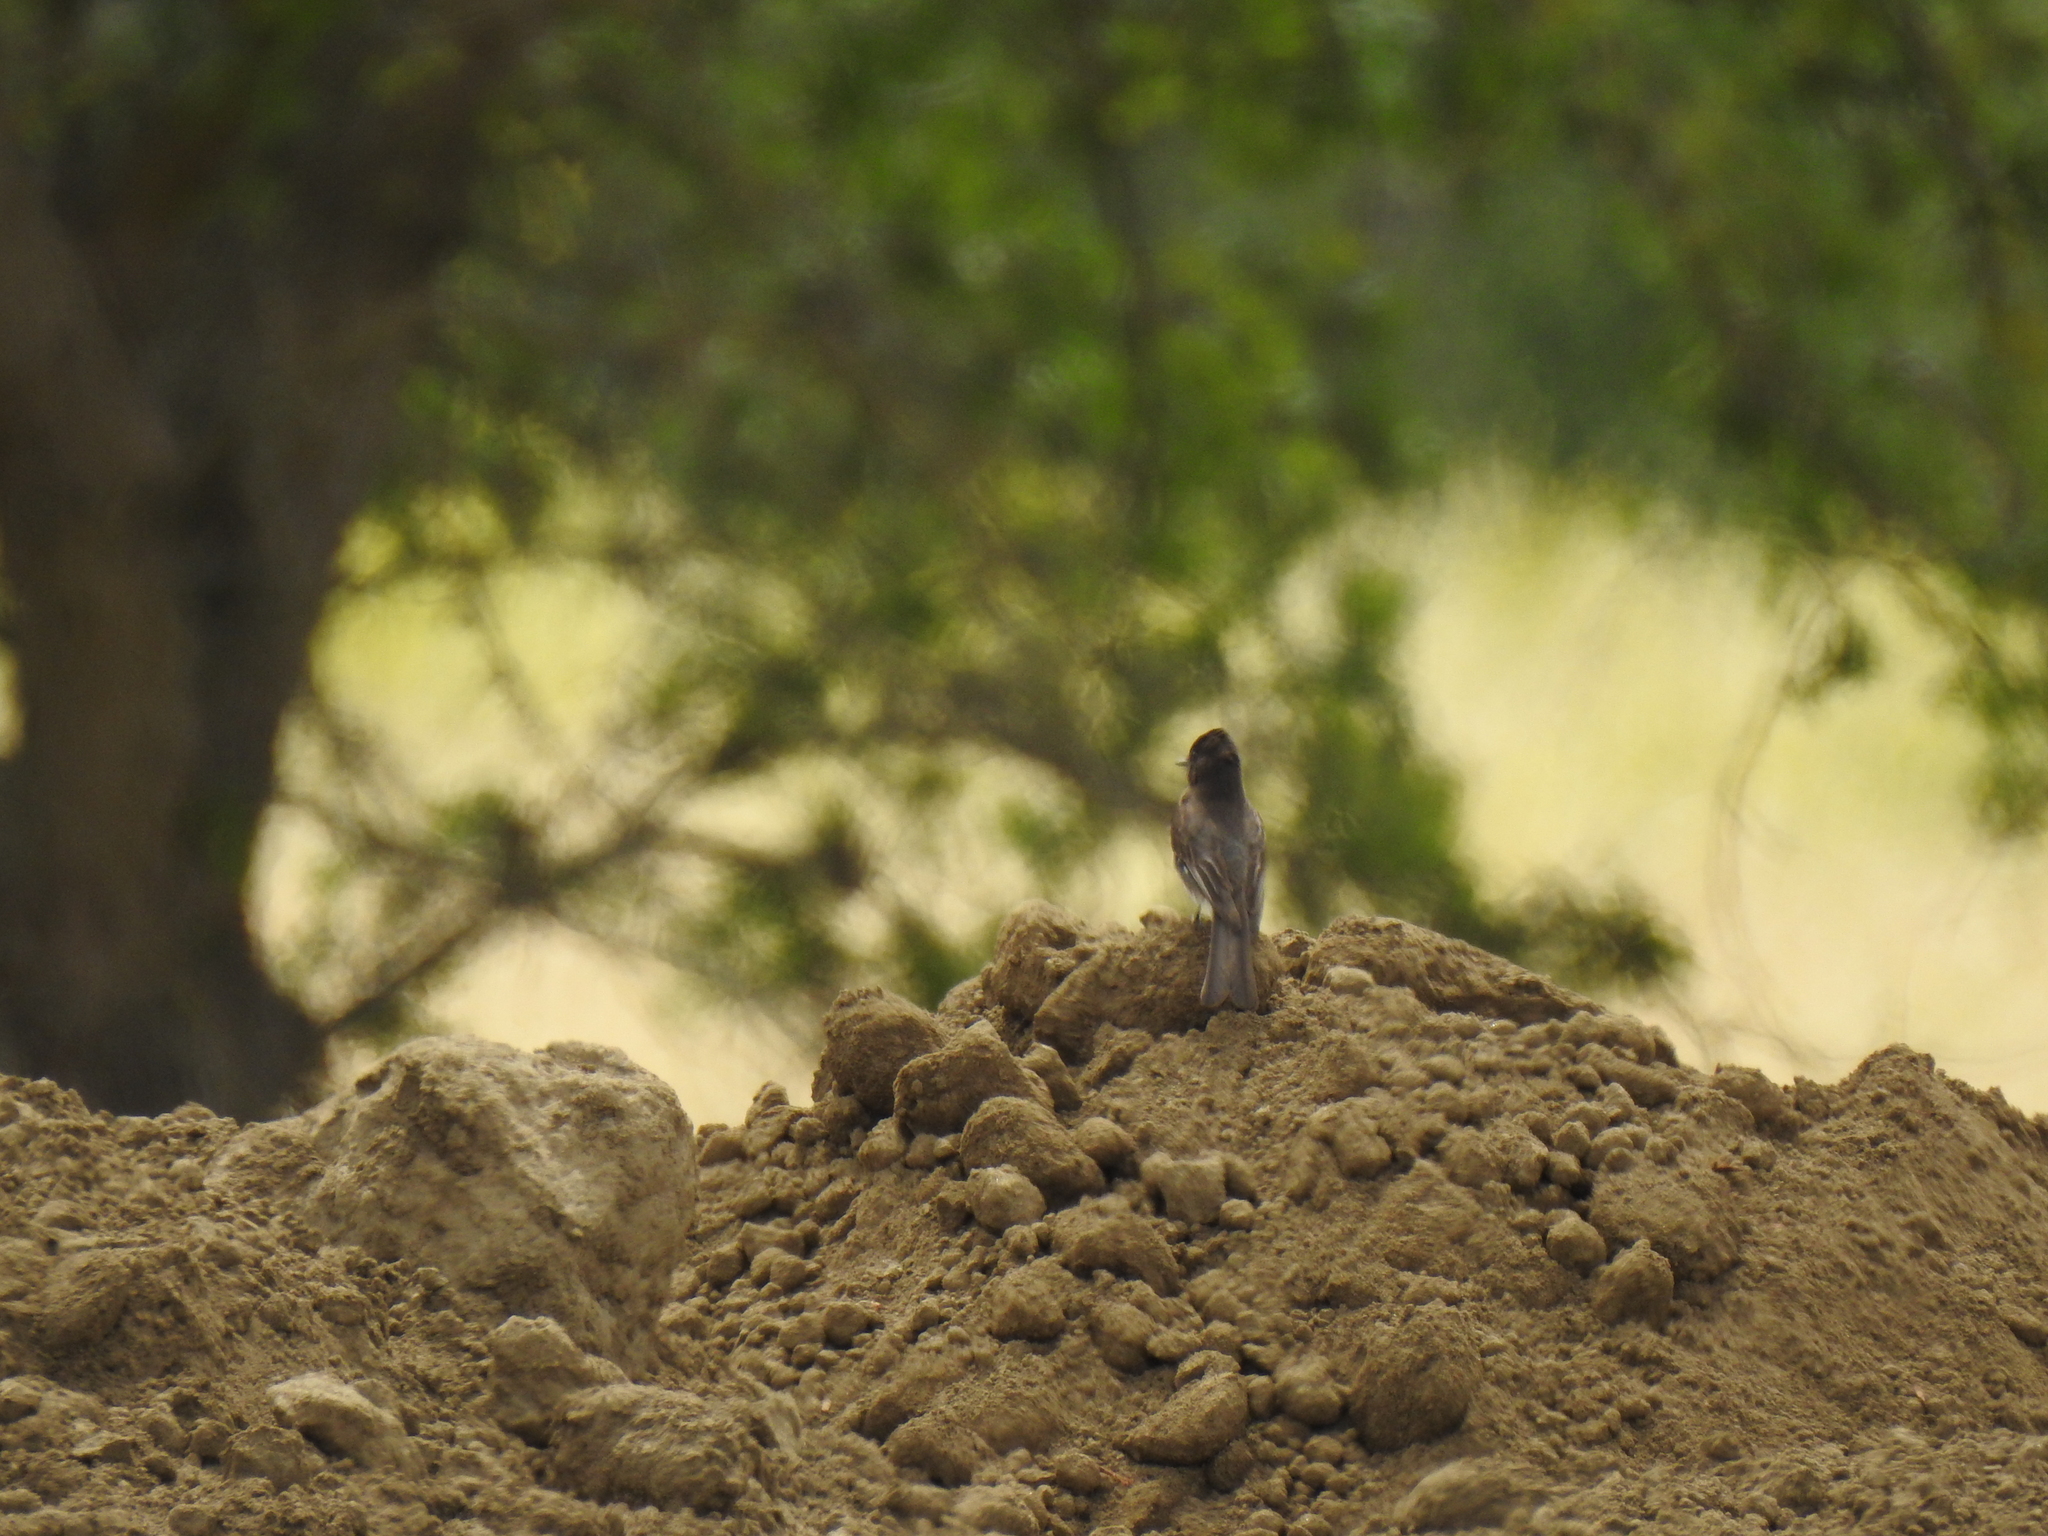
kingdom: Animalia
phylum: Chordata
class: Aves
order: Passeriformes
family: Tyrannidae
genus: Sayornis
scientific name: Sayornis nigricans
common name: Black phoebe
